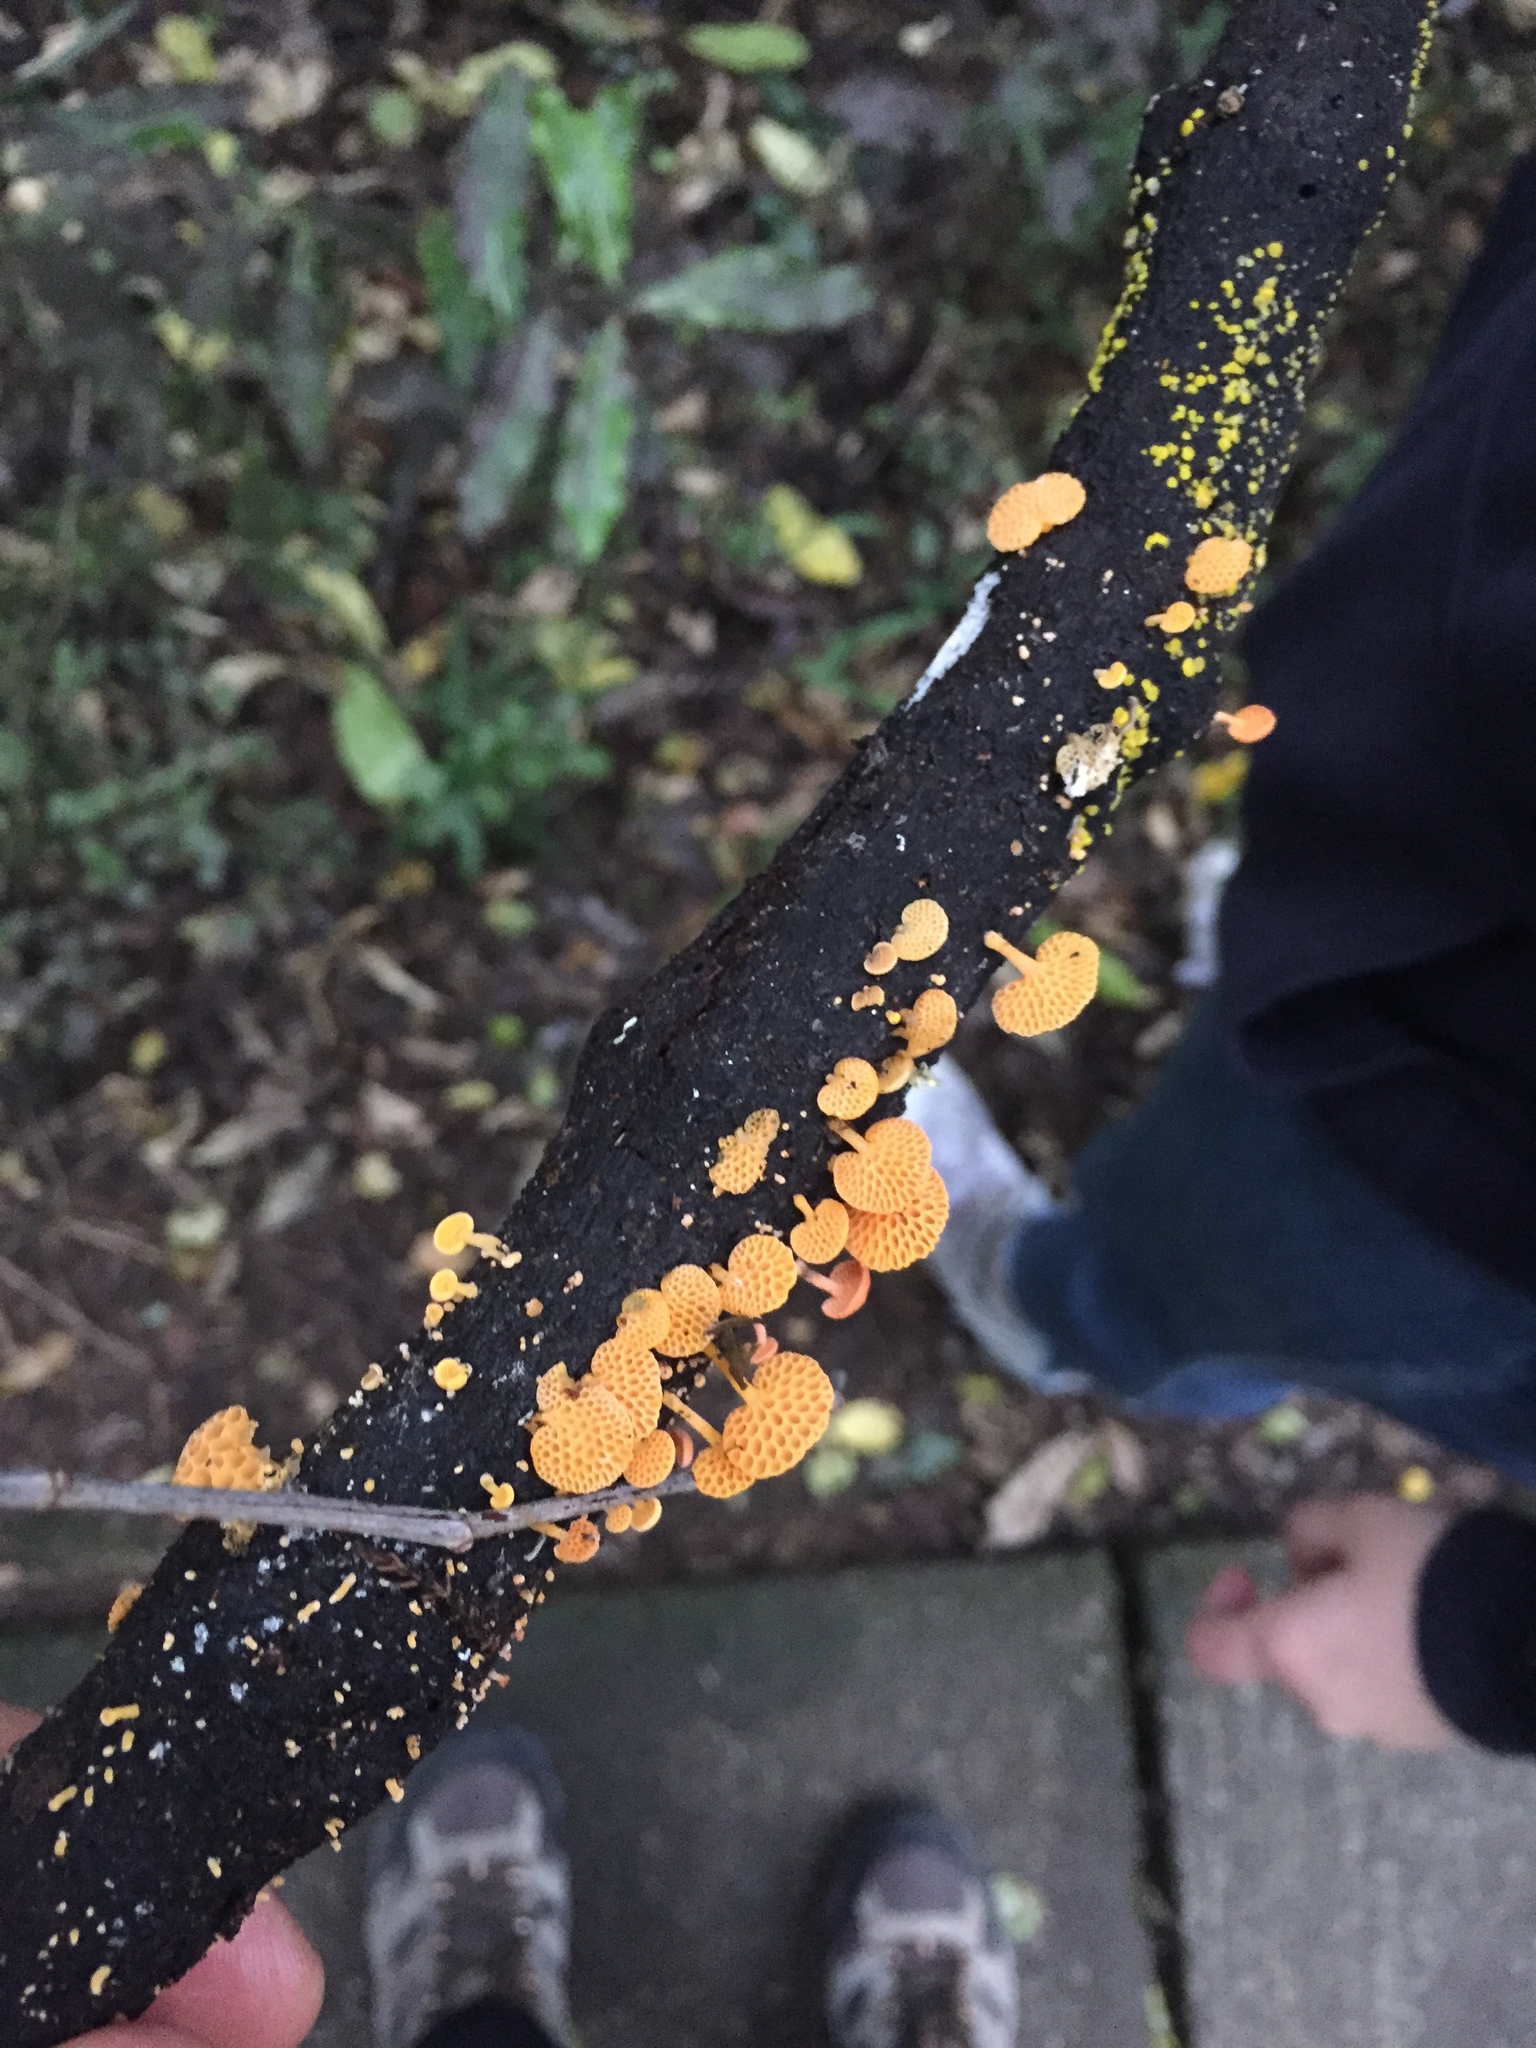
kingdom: Fungi
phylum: Basidiomycota
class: Agaricomycetes
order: Agaricales
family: Mycenaceae
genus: Favolaschia
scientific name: Favolaschia claudopus
